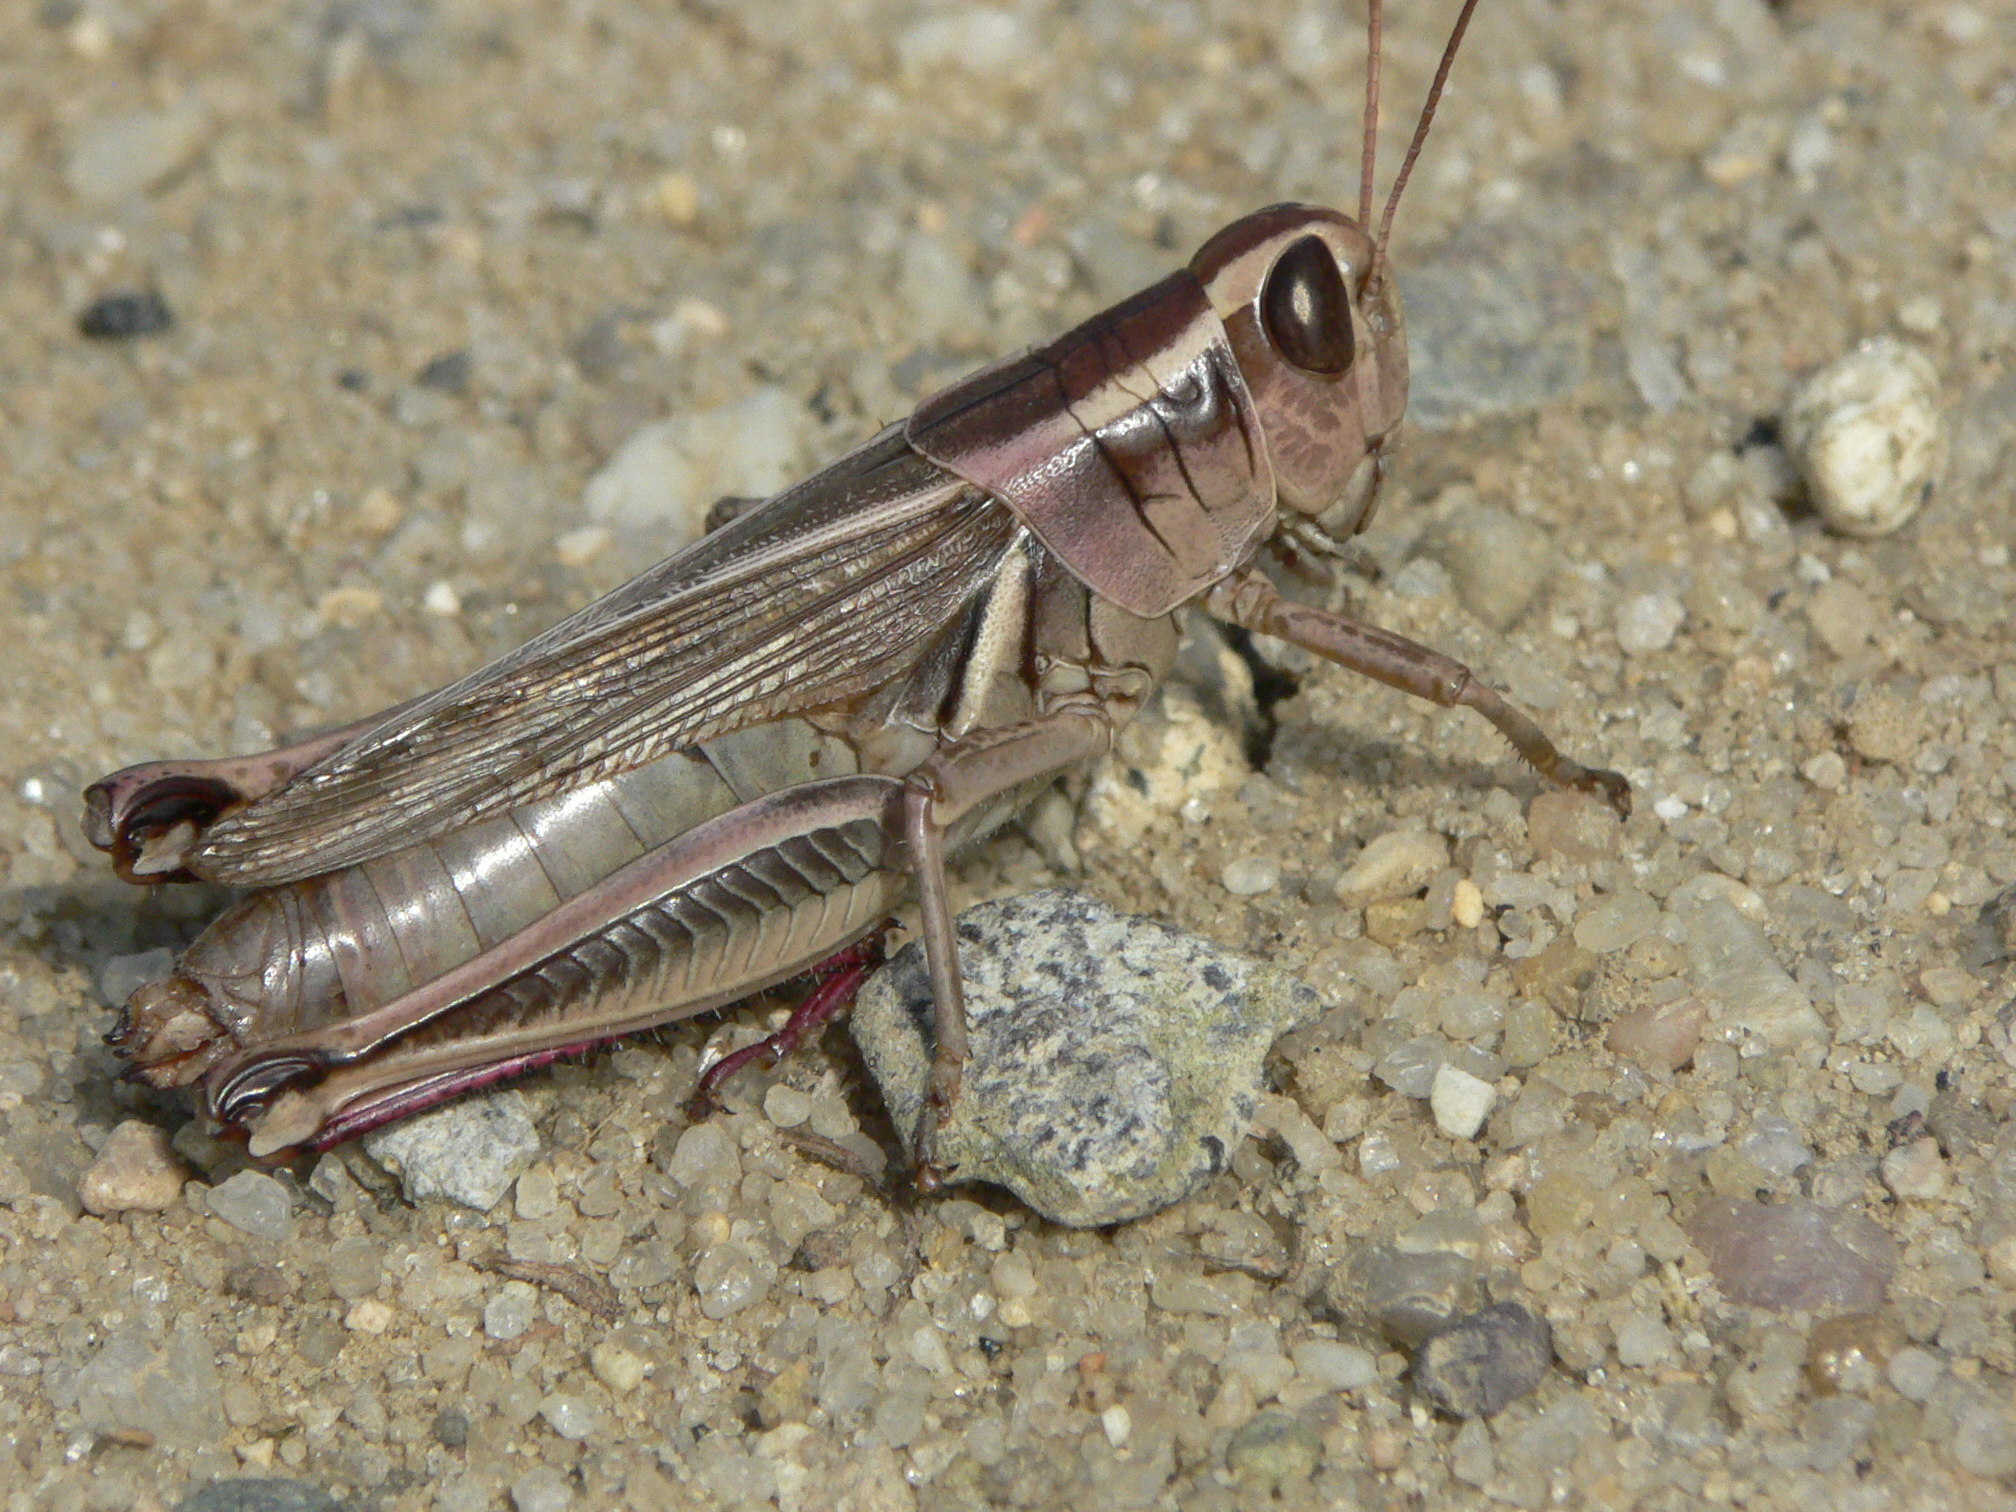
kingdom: Animalia
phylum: Arthropoda
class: Insecta
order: Orthoptera
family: Acrididae
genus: Melanoplus
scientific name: Melanoplus bivittatus
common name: Two-striped grasshopper
